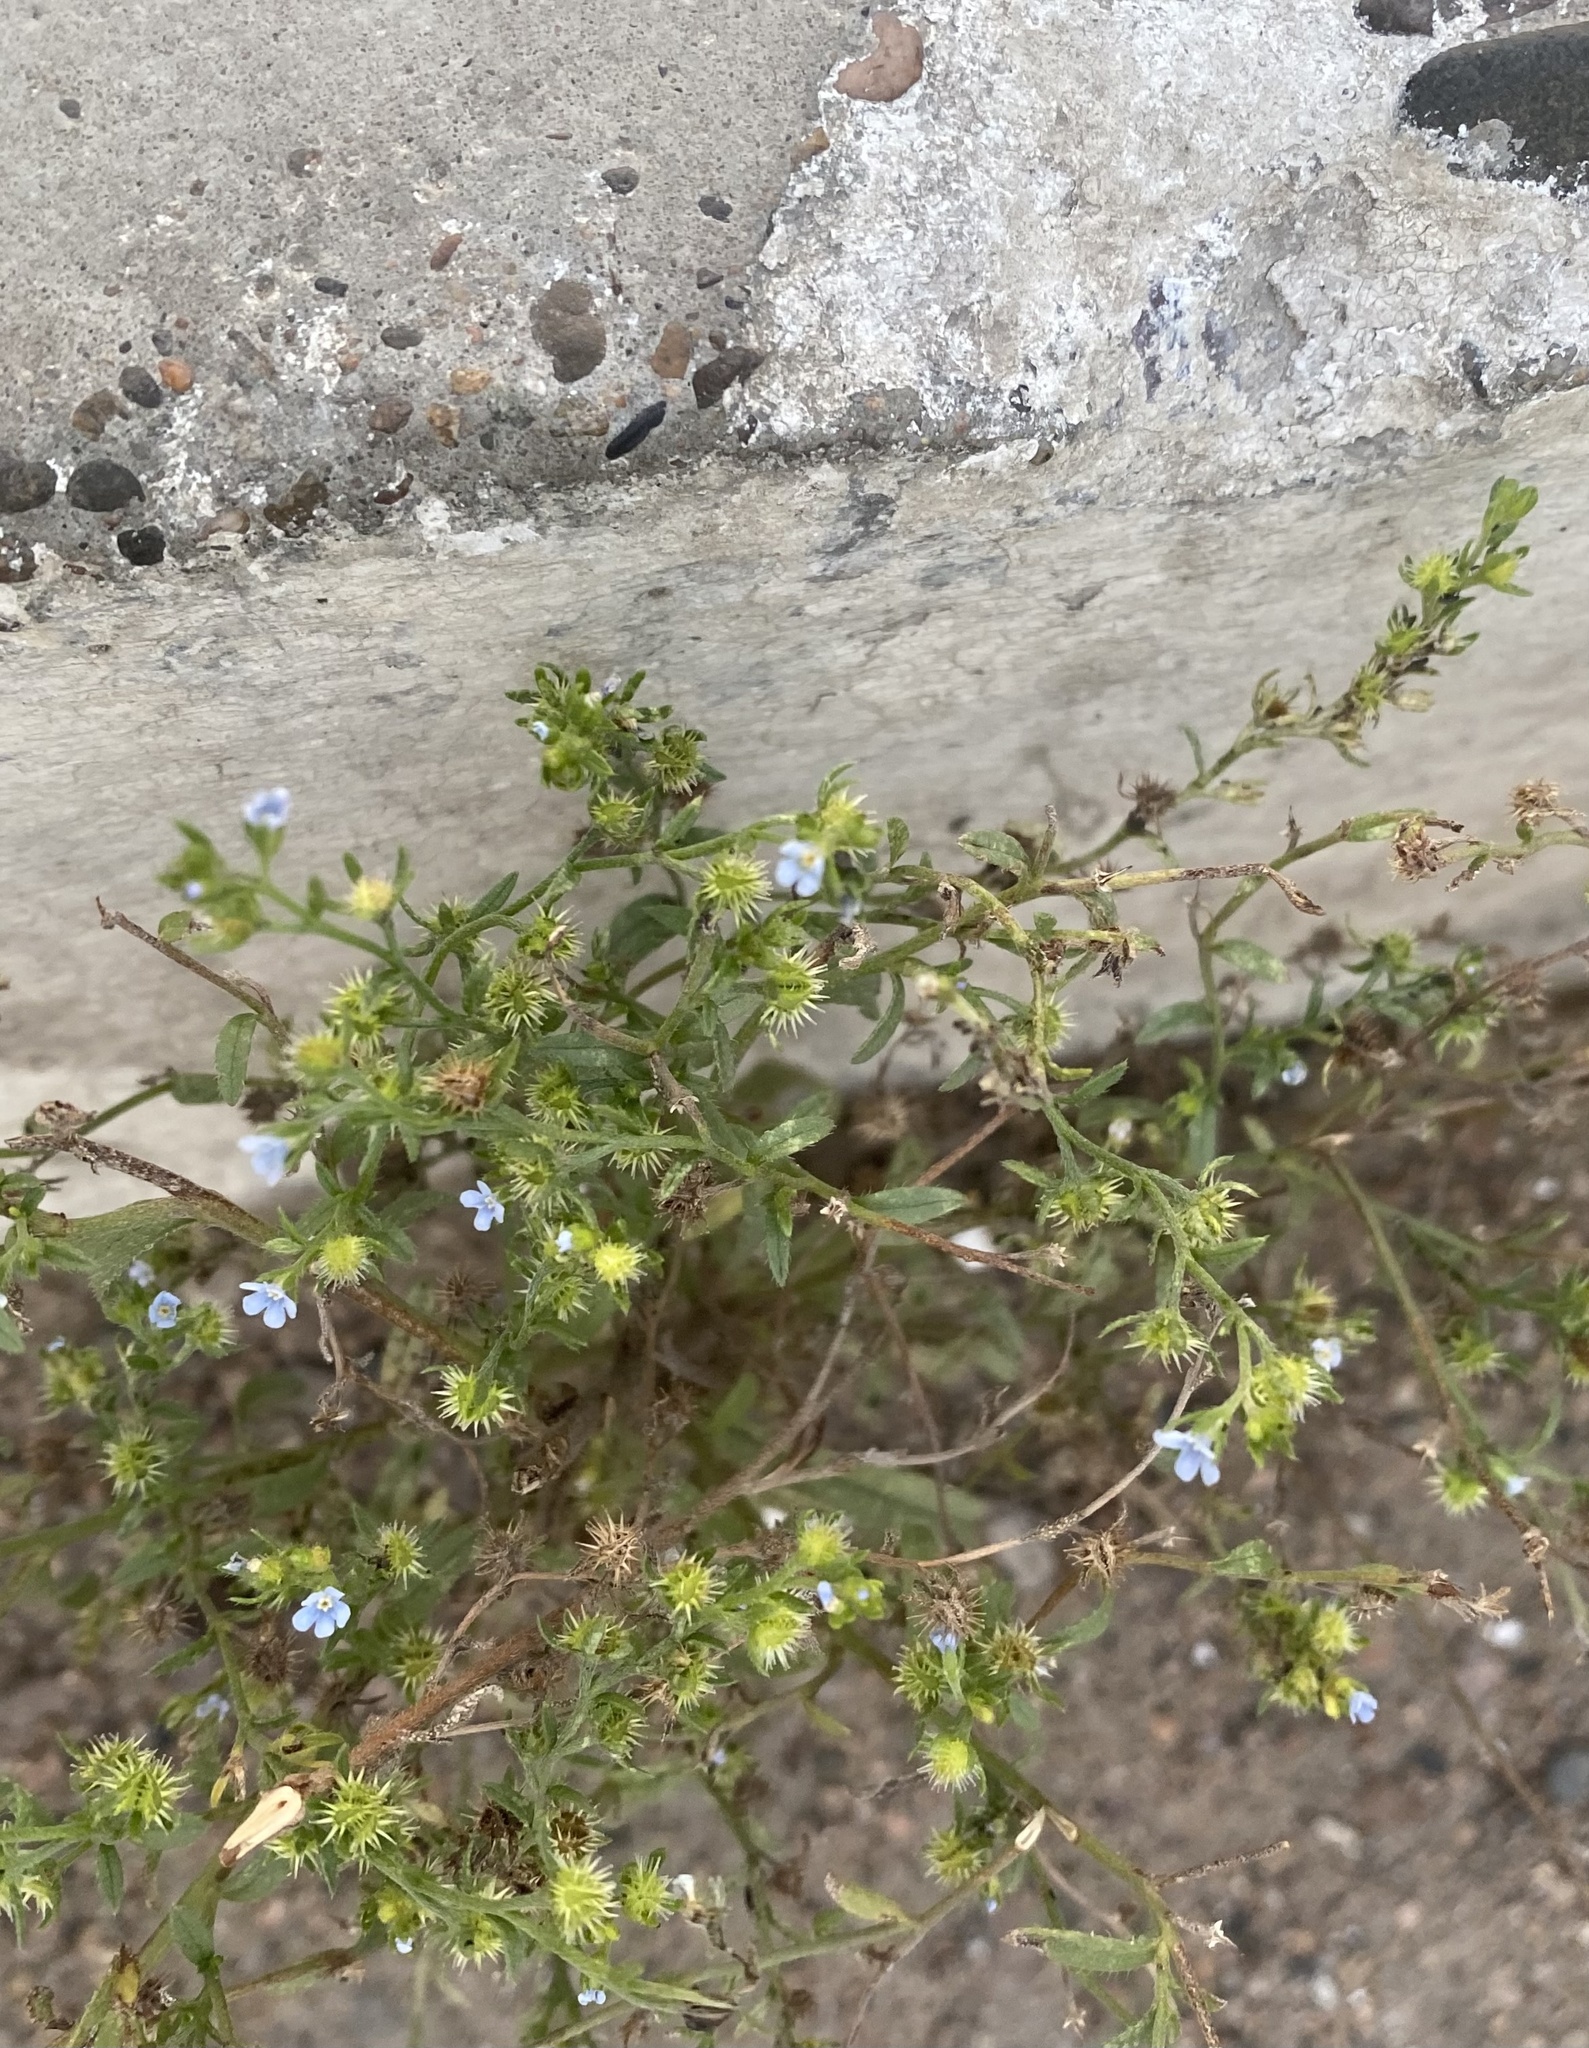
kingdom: Plantae
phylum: Tracheophyta
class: Magnoliopsida
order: Boraginales
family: Boraginaceae
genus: Lappula
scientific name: Lappula squarrosa
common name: European stickseed
